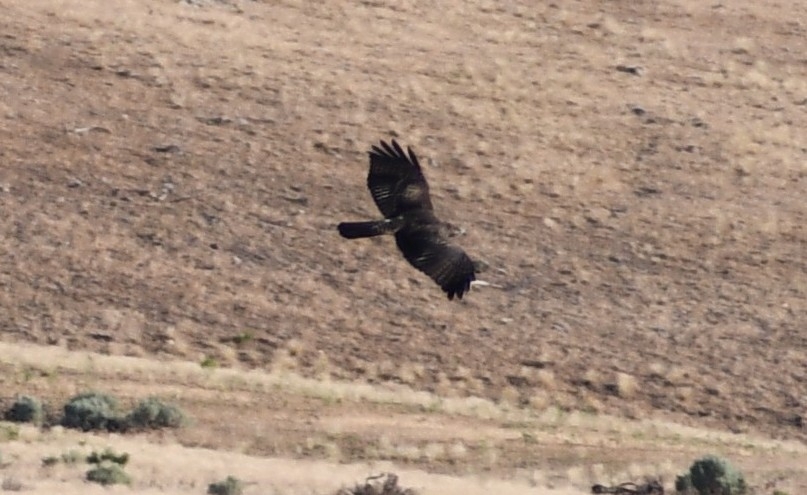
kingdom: Animalia
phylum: Chordata
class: Aves
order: Accipitriformes
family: Accipitridae
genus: Aquila
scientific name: Aquila chrysaetos
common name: Golden eagle
